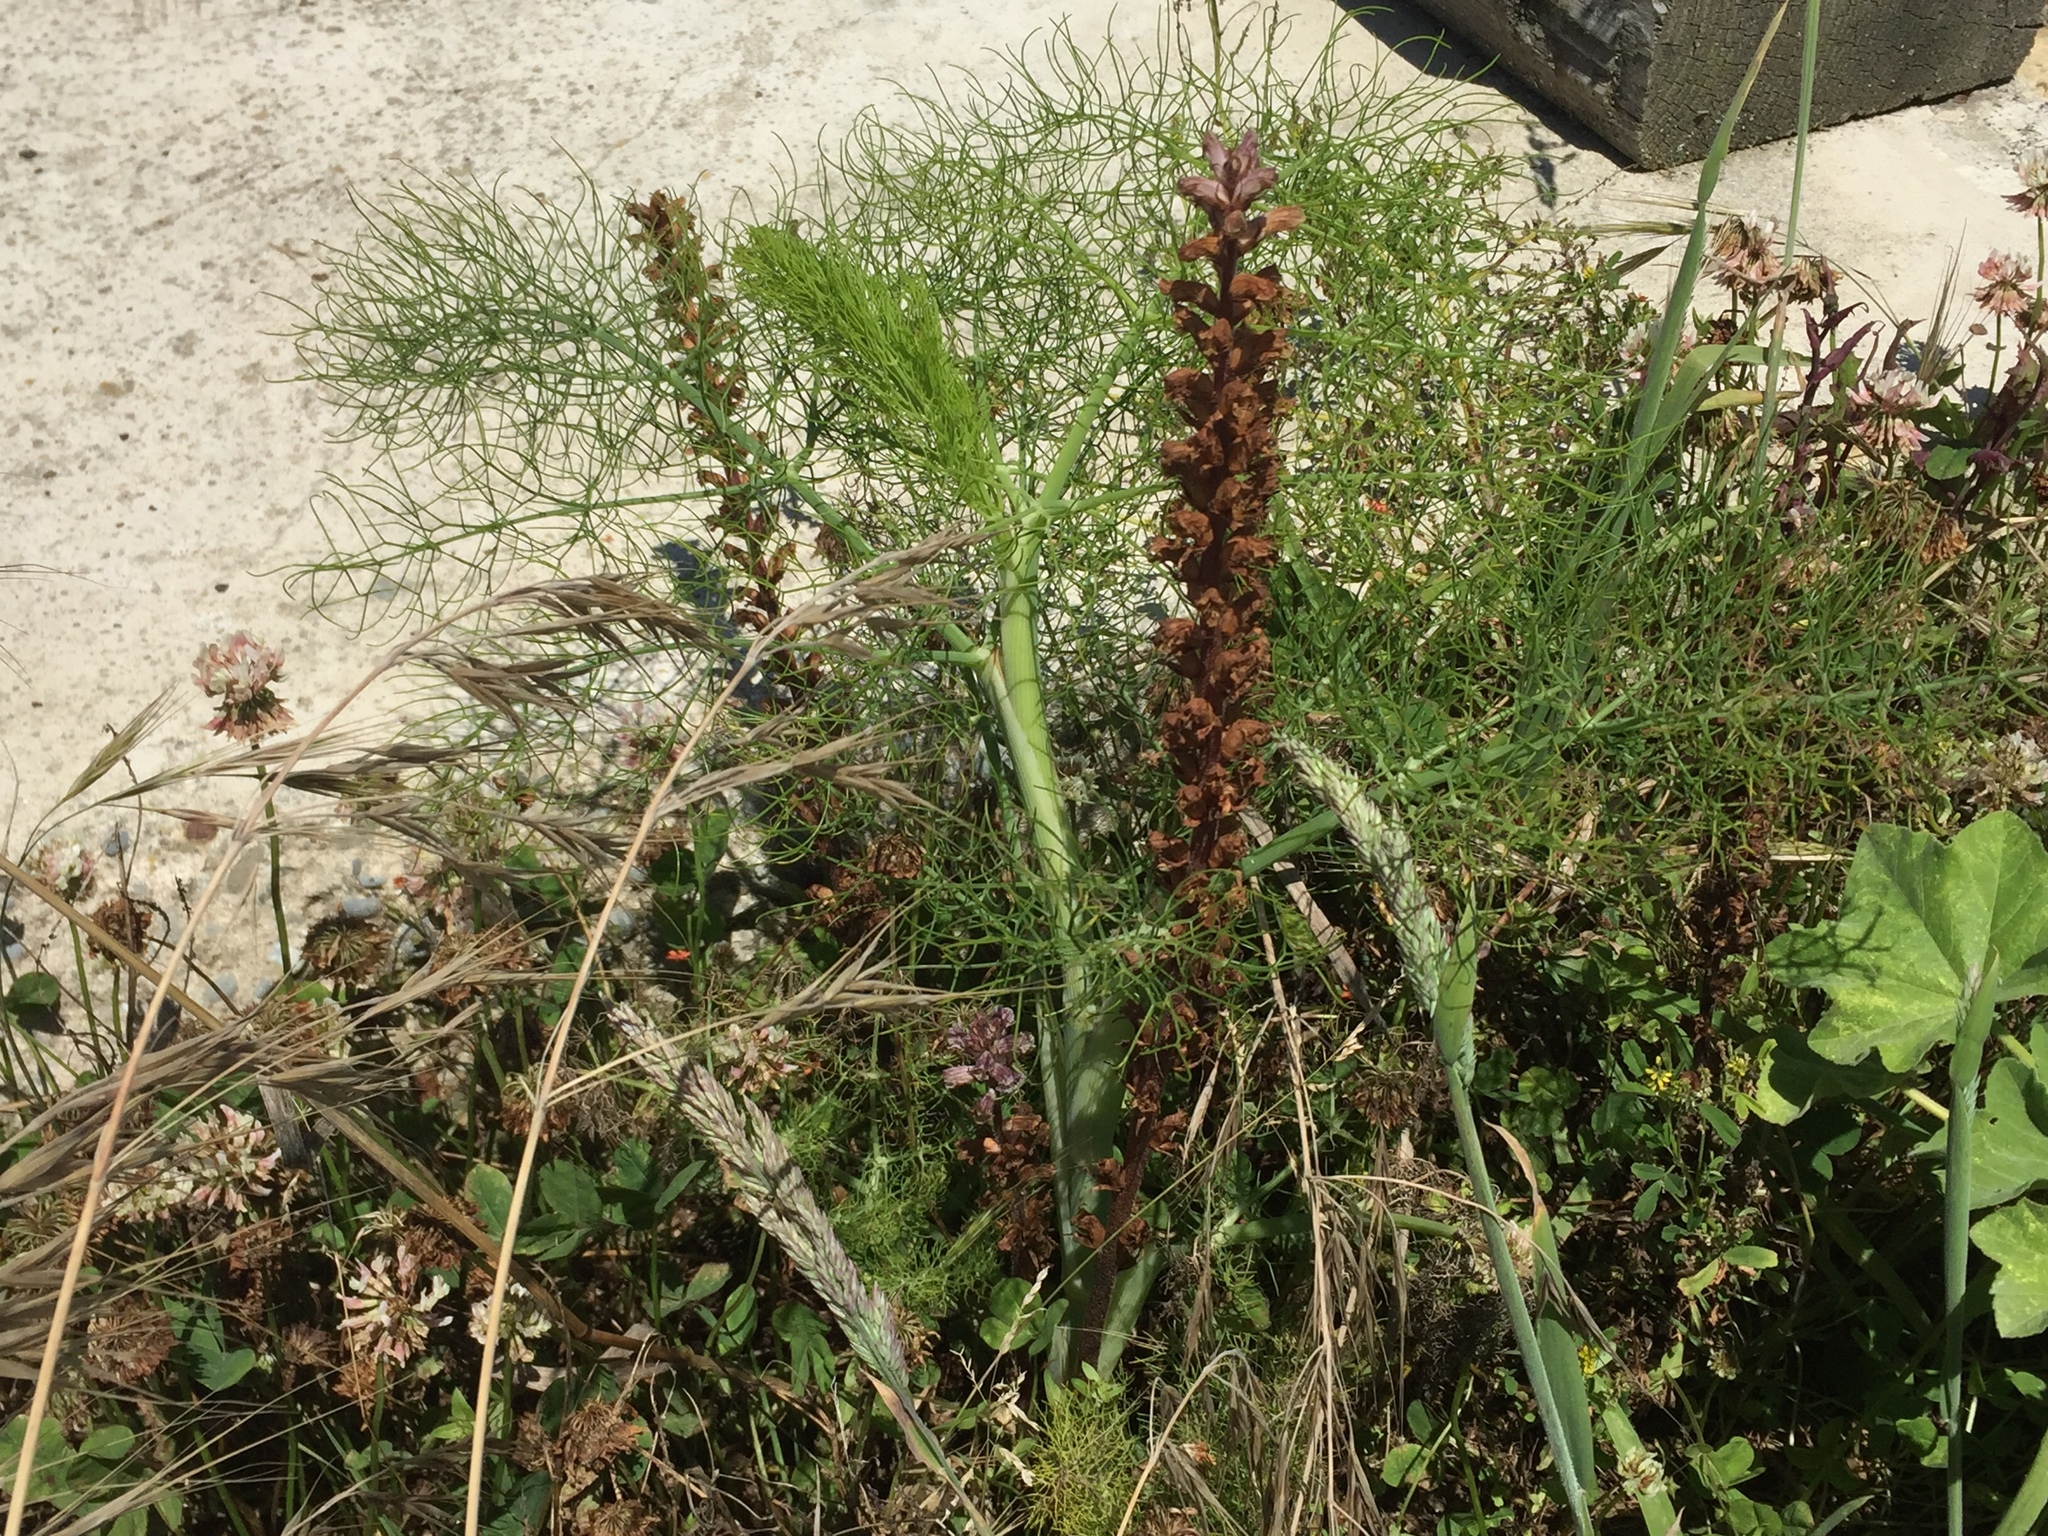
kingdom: Plantae
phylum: Tracheophyta
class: Magnoliopsida
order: Lamiales
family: Orobanchaceae
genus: Orobanche
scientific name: Orobanche minor
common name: Common broomrape
